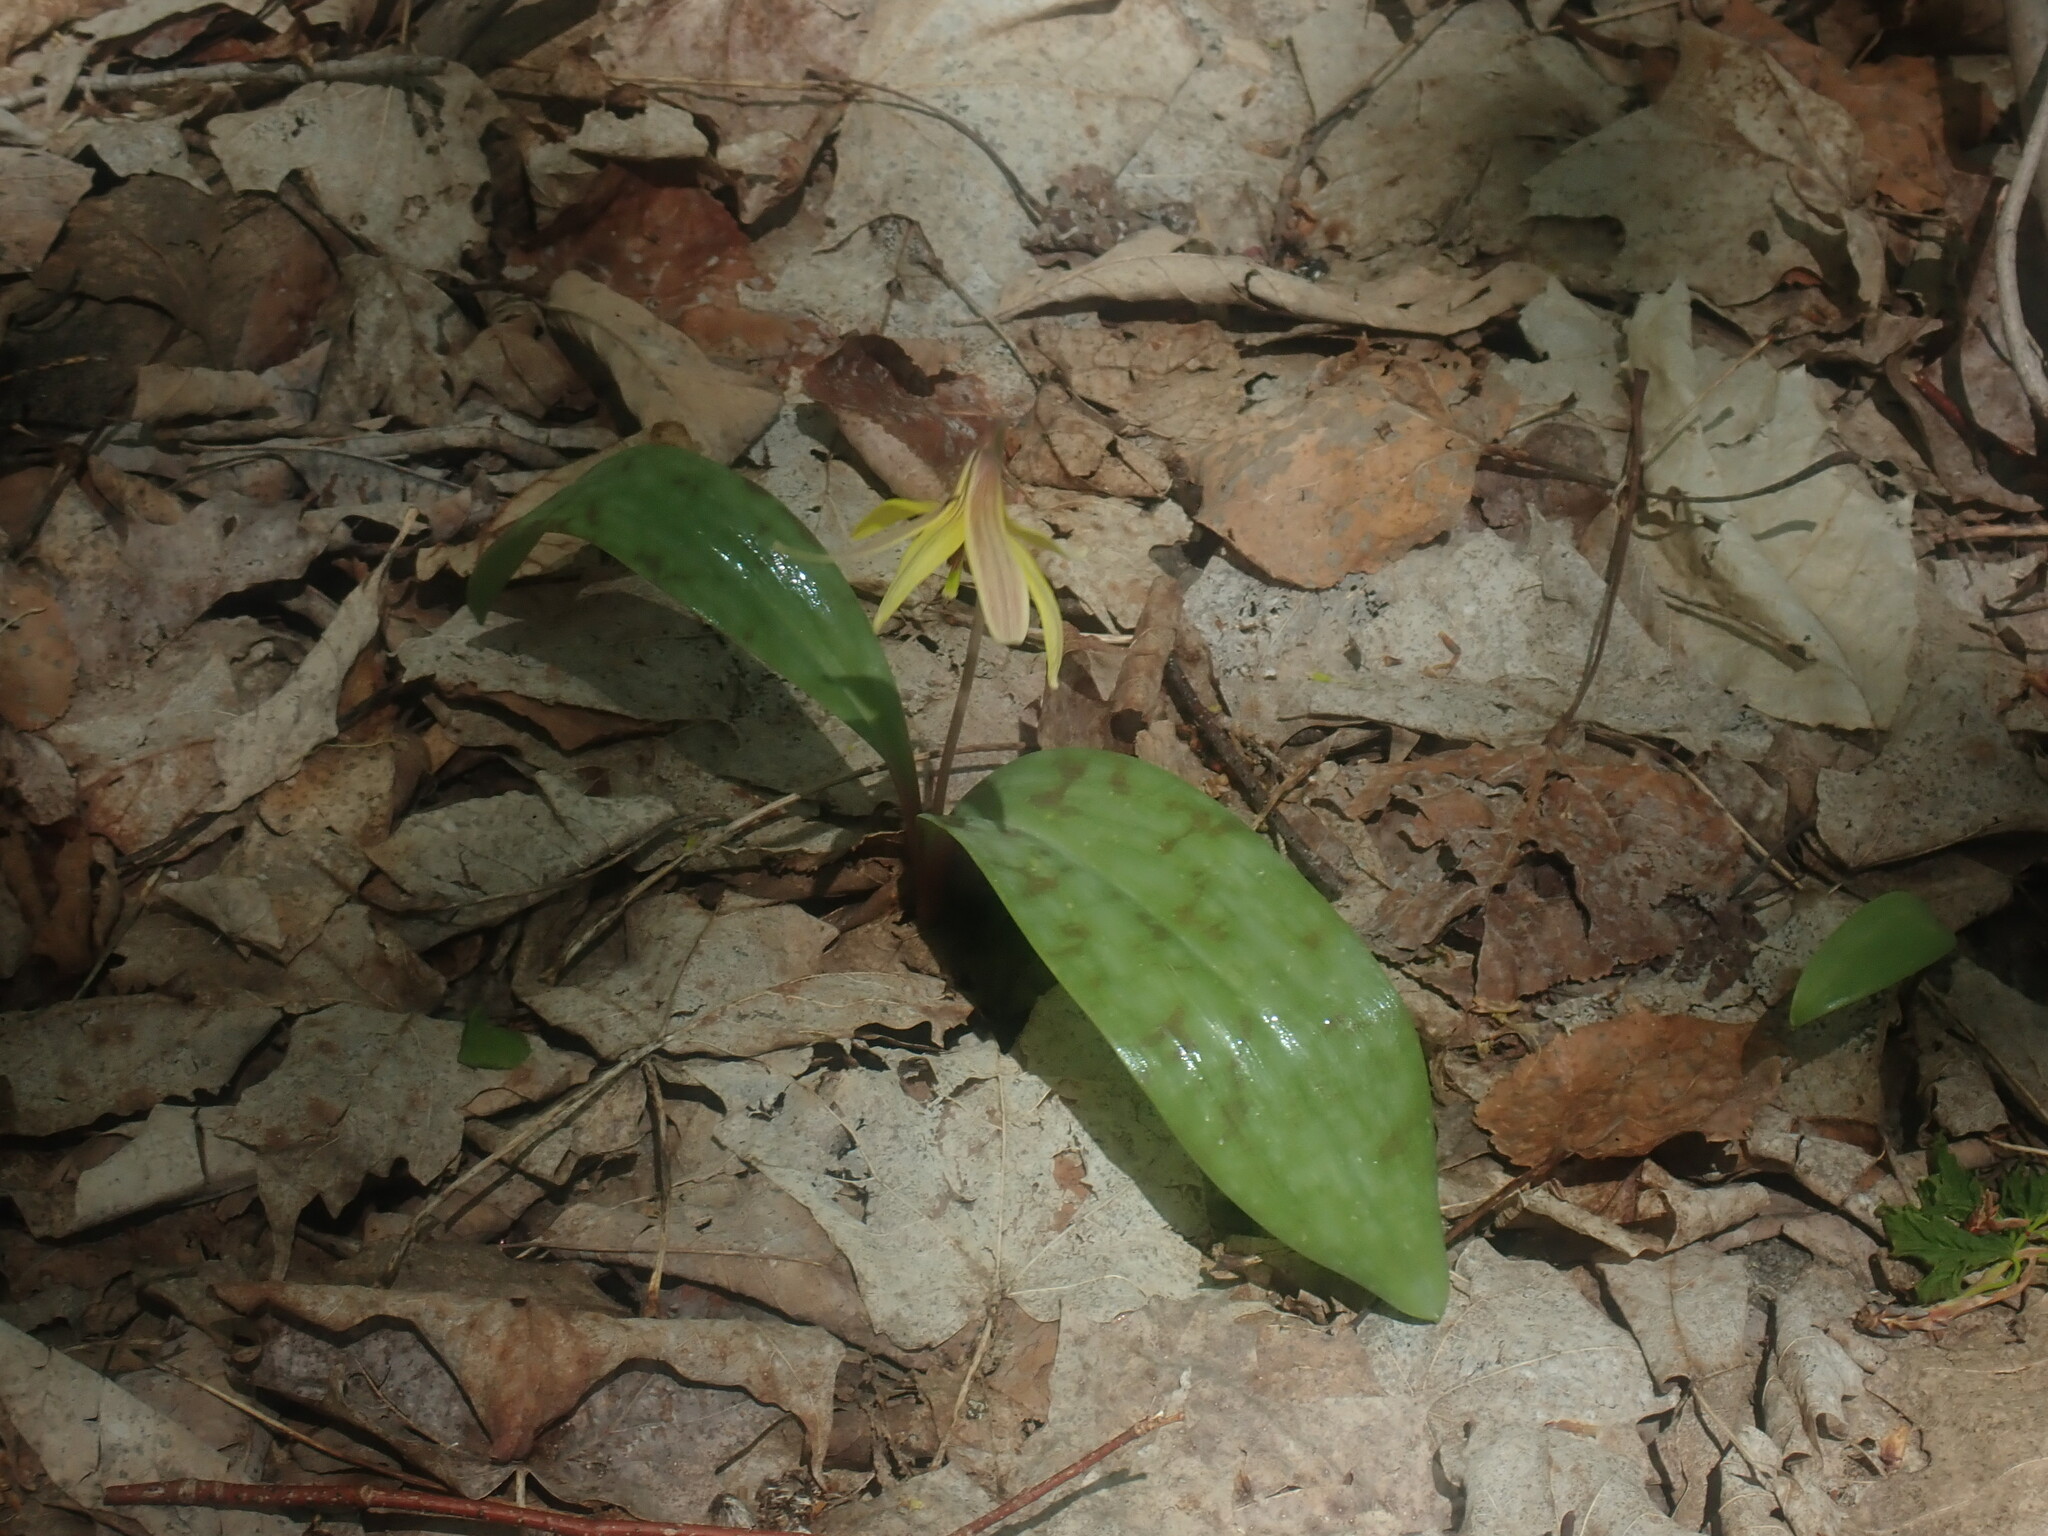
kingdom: Plantae
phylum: Tracheophyta
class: Liliopsida
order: Liliales
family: Liliaceae
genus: Erythronium
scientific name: Erythronium americanum
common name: Yellow adder's-tongue
